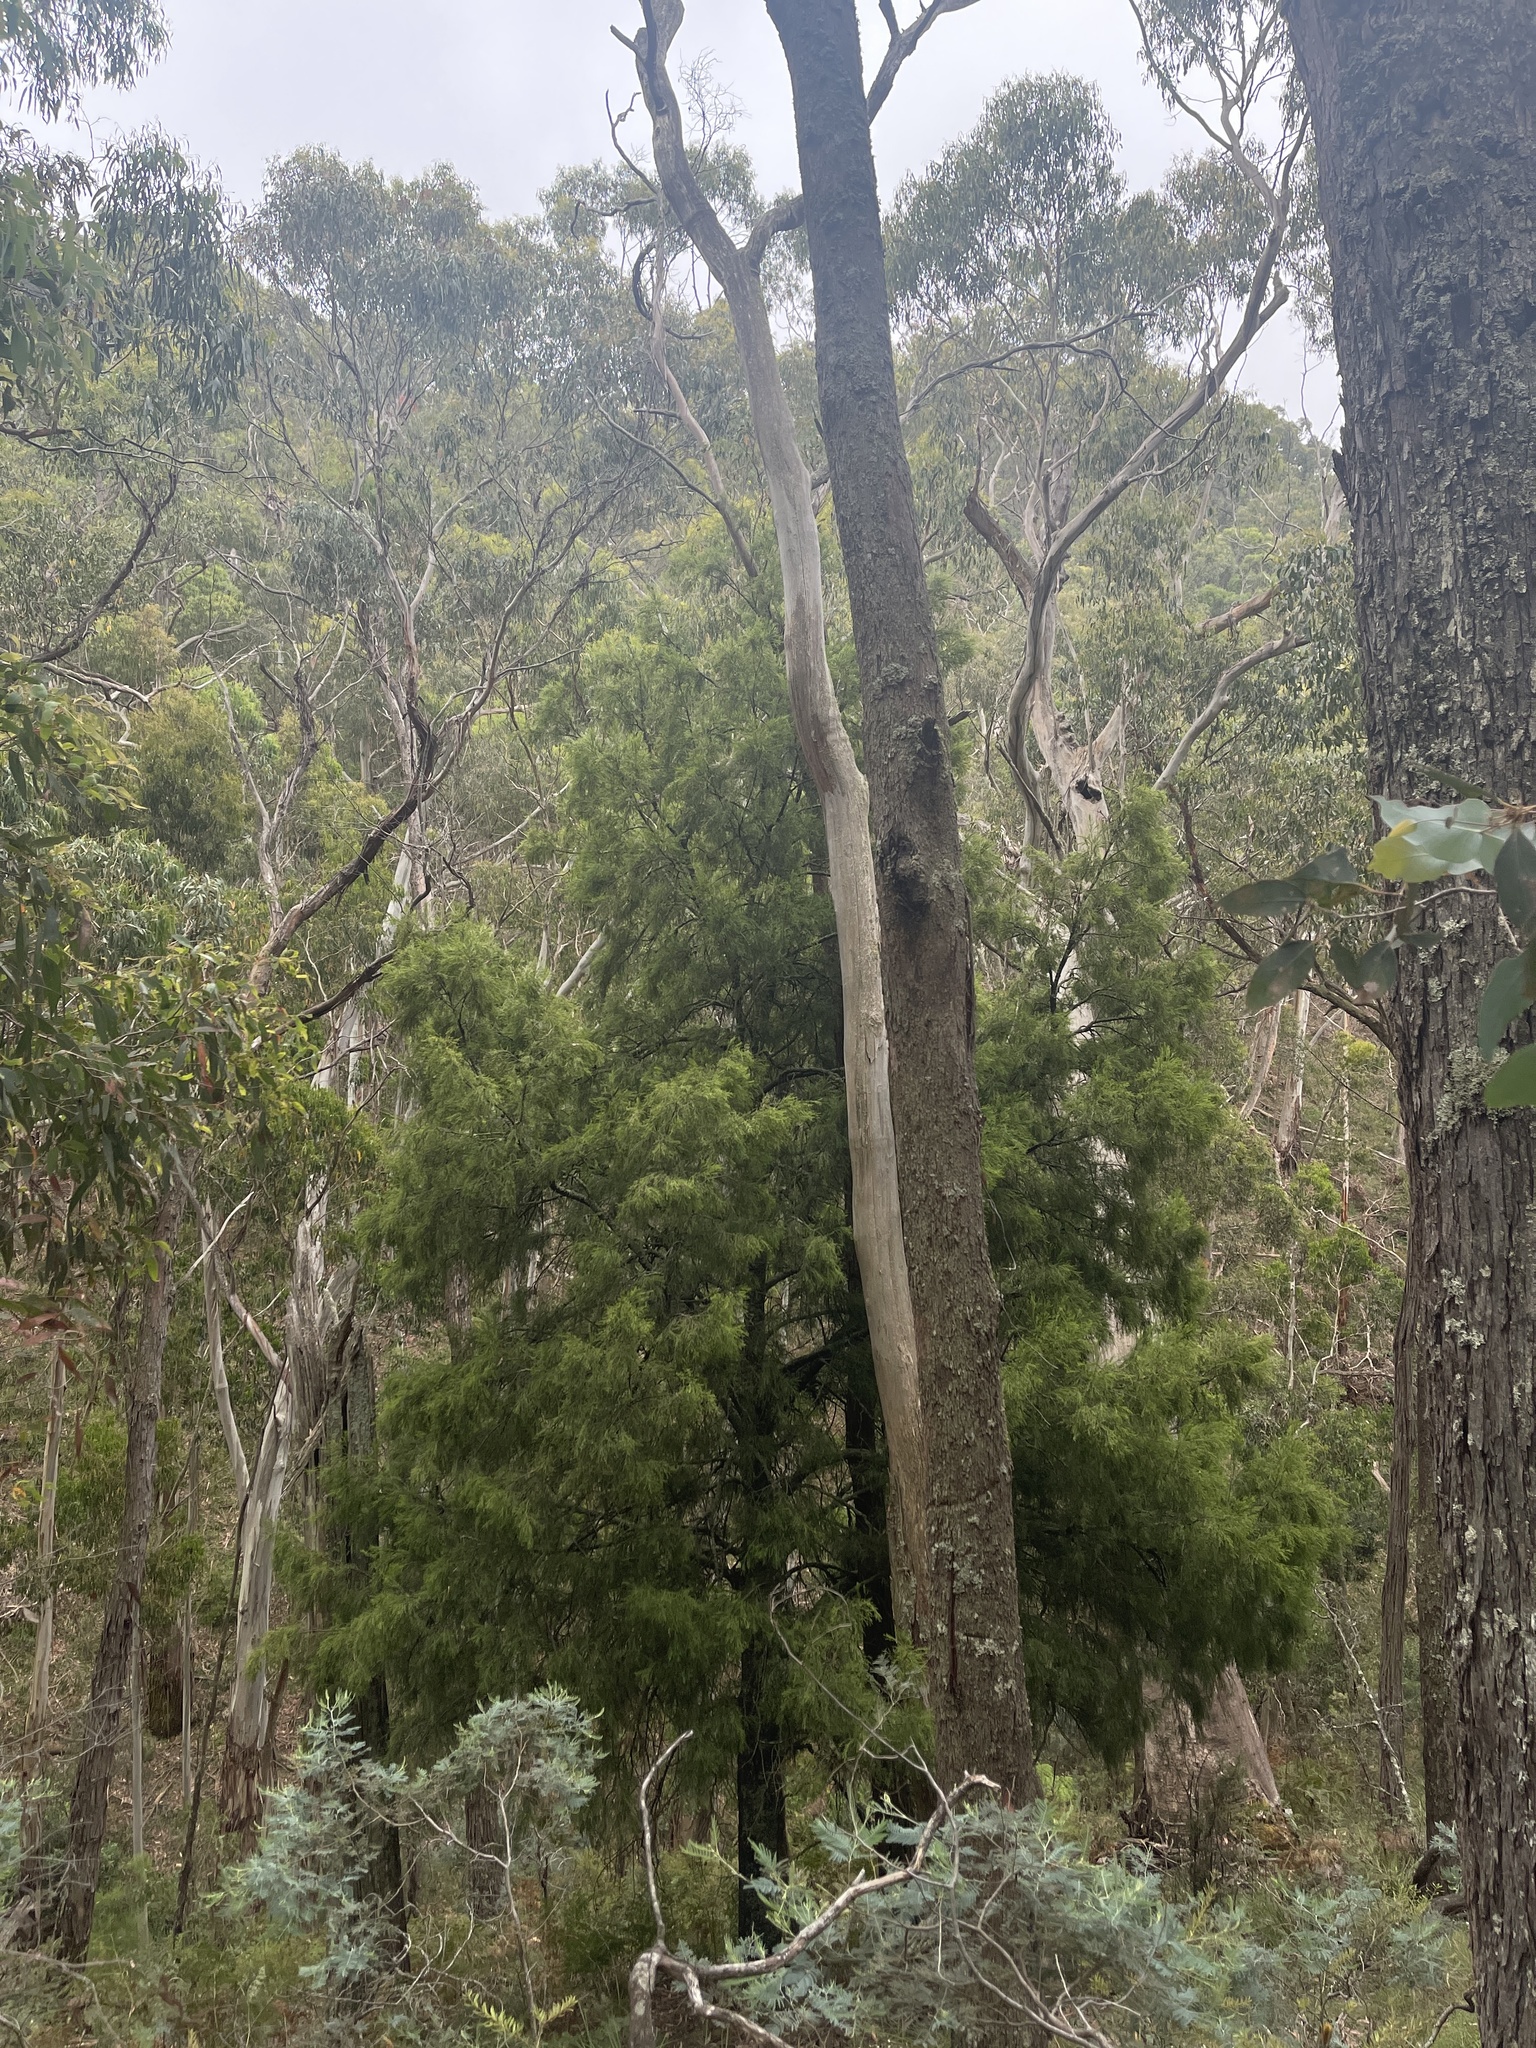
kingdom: Plantae
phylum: Tracheophyta
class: Magnoliopsida
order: Santalales
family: Santalaceae
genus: Exocarpos
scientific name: Exocarpos cupressiformis
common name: Cherry ballart
